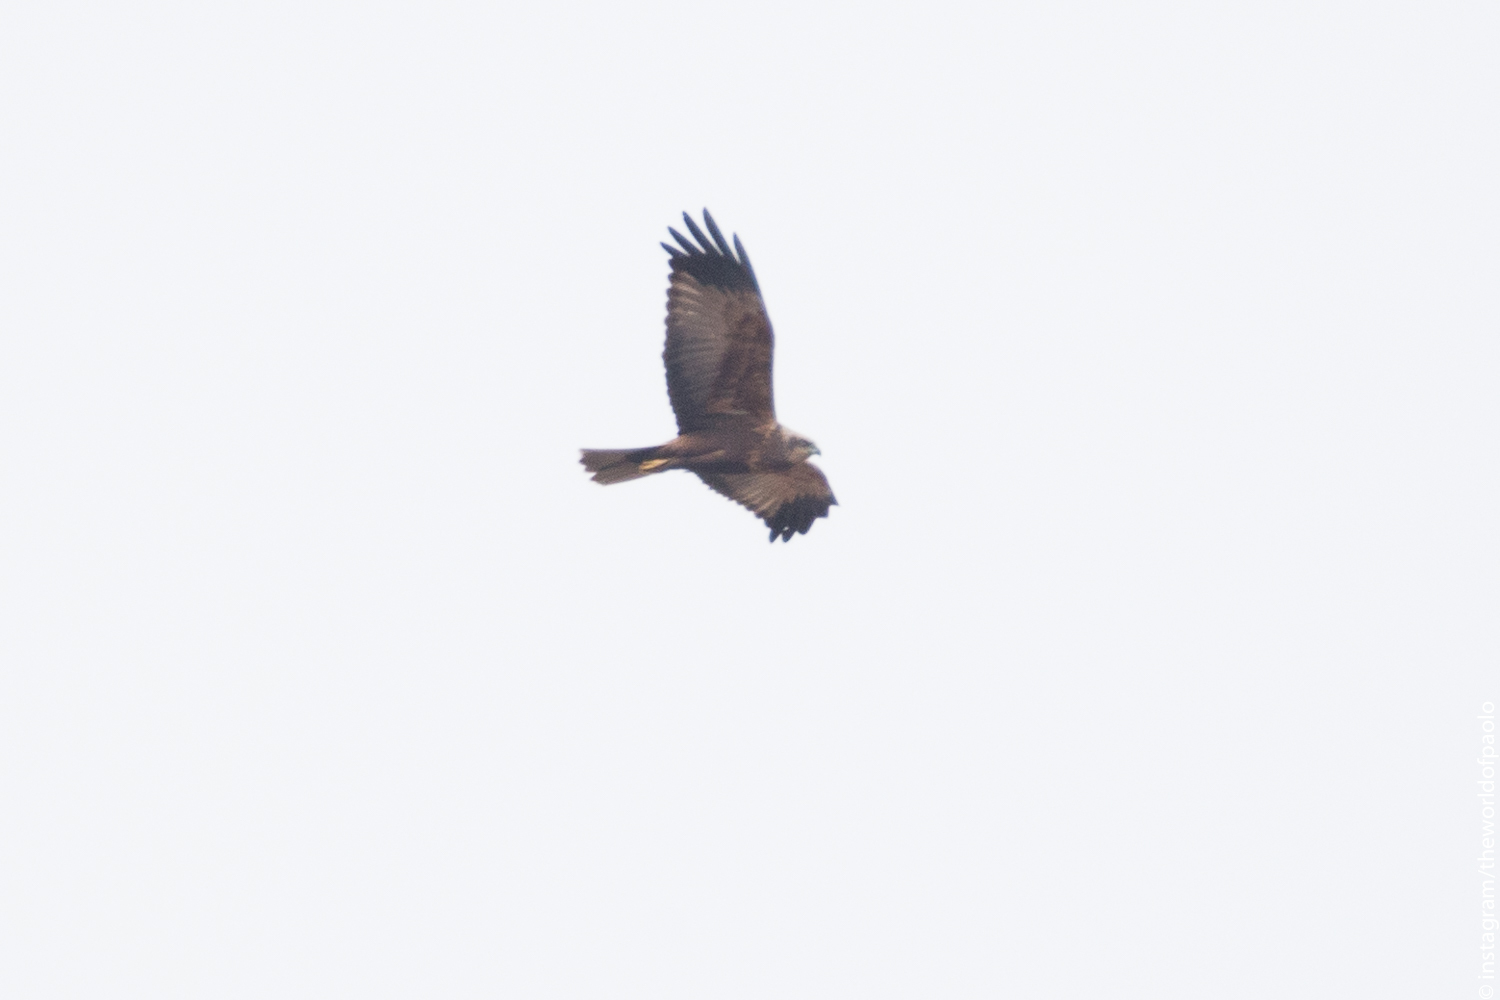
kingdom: Animalia
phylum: Chordata
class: Aves
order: Accipitriformes
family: Accipitridae
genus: Circus
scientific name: Circus aeruginosus
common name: Western marsh harrier
